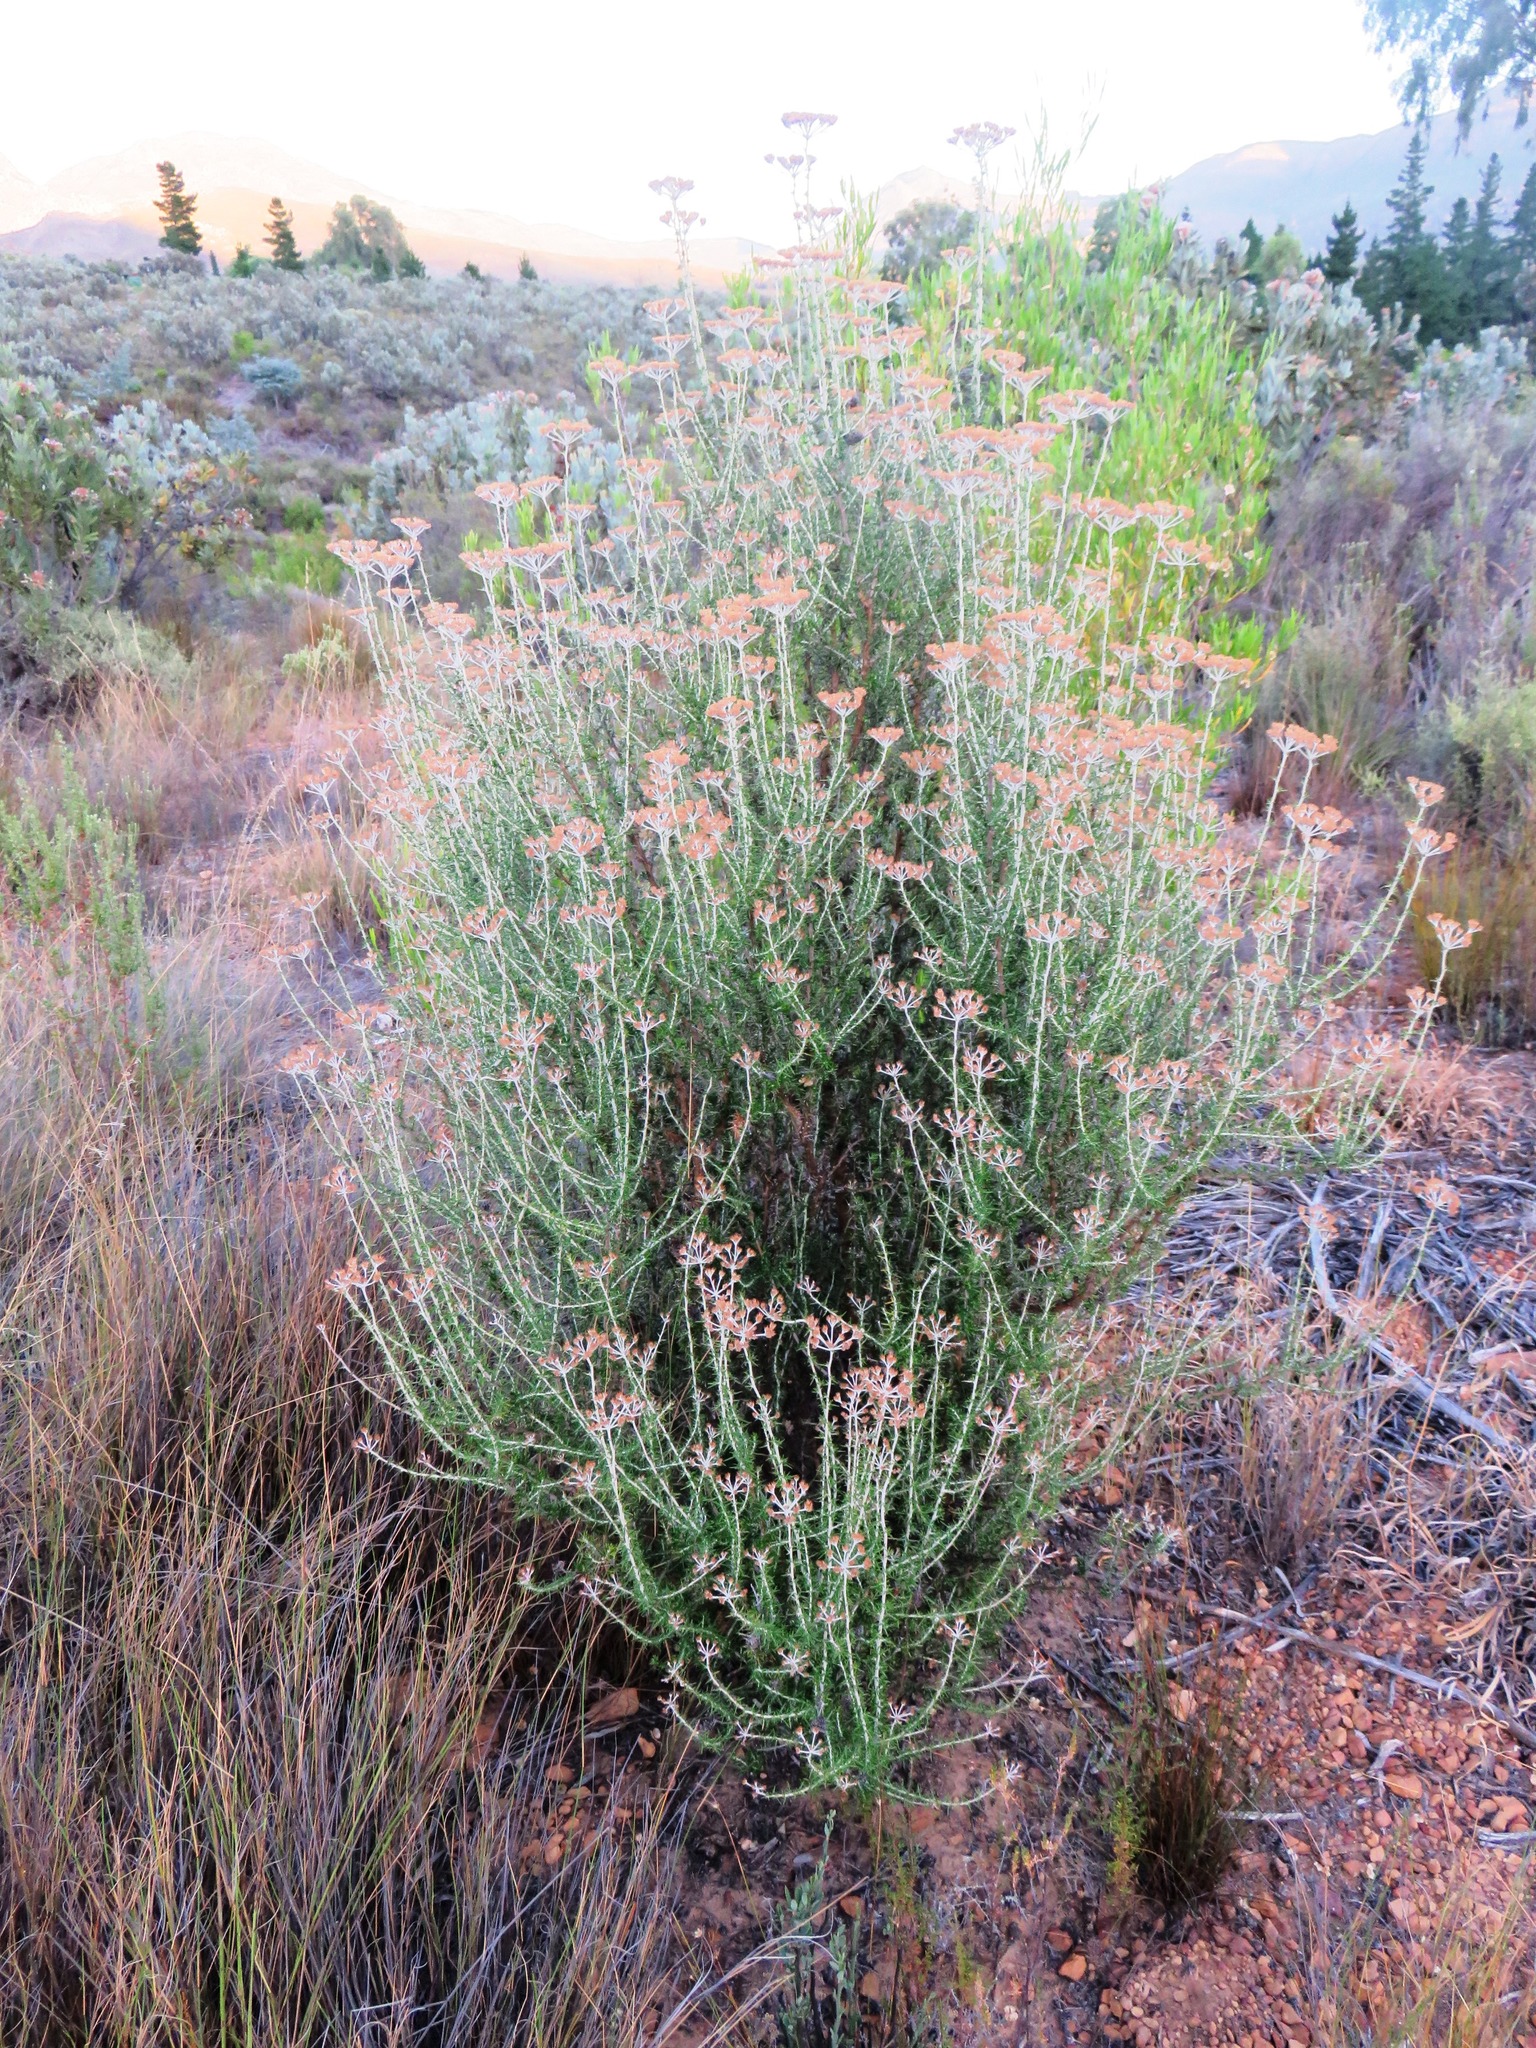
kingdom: Plantae
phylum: Tracheophyta
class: Magnoliopsida
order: Asterales
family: Asteraceae
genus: Metalasia
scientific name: Metalasia densa
